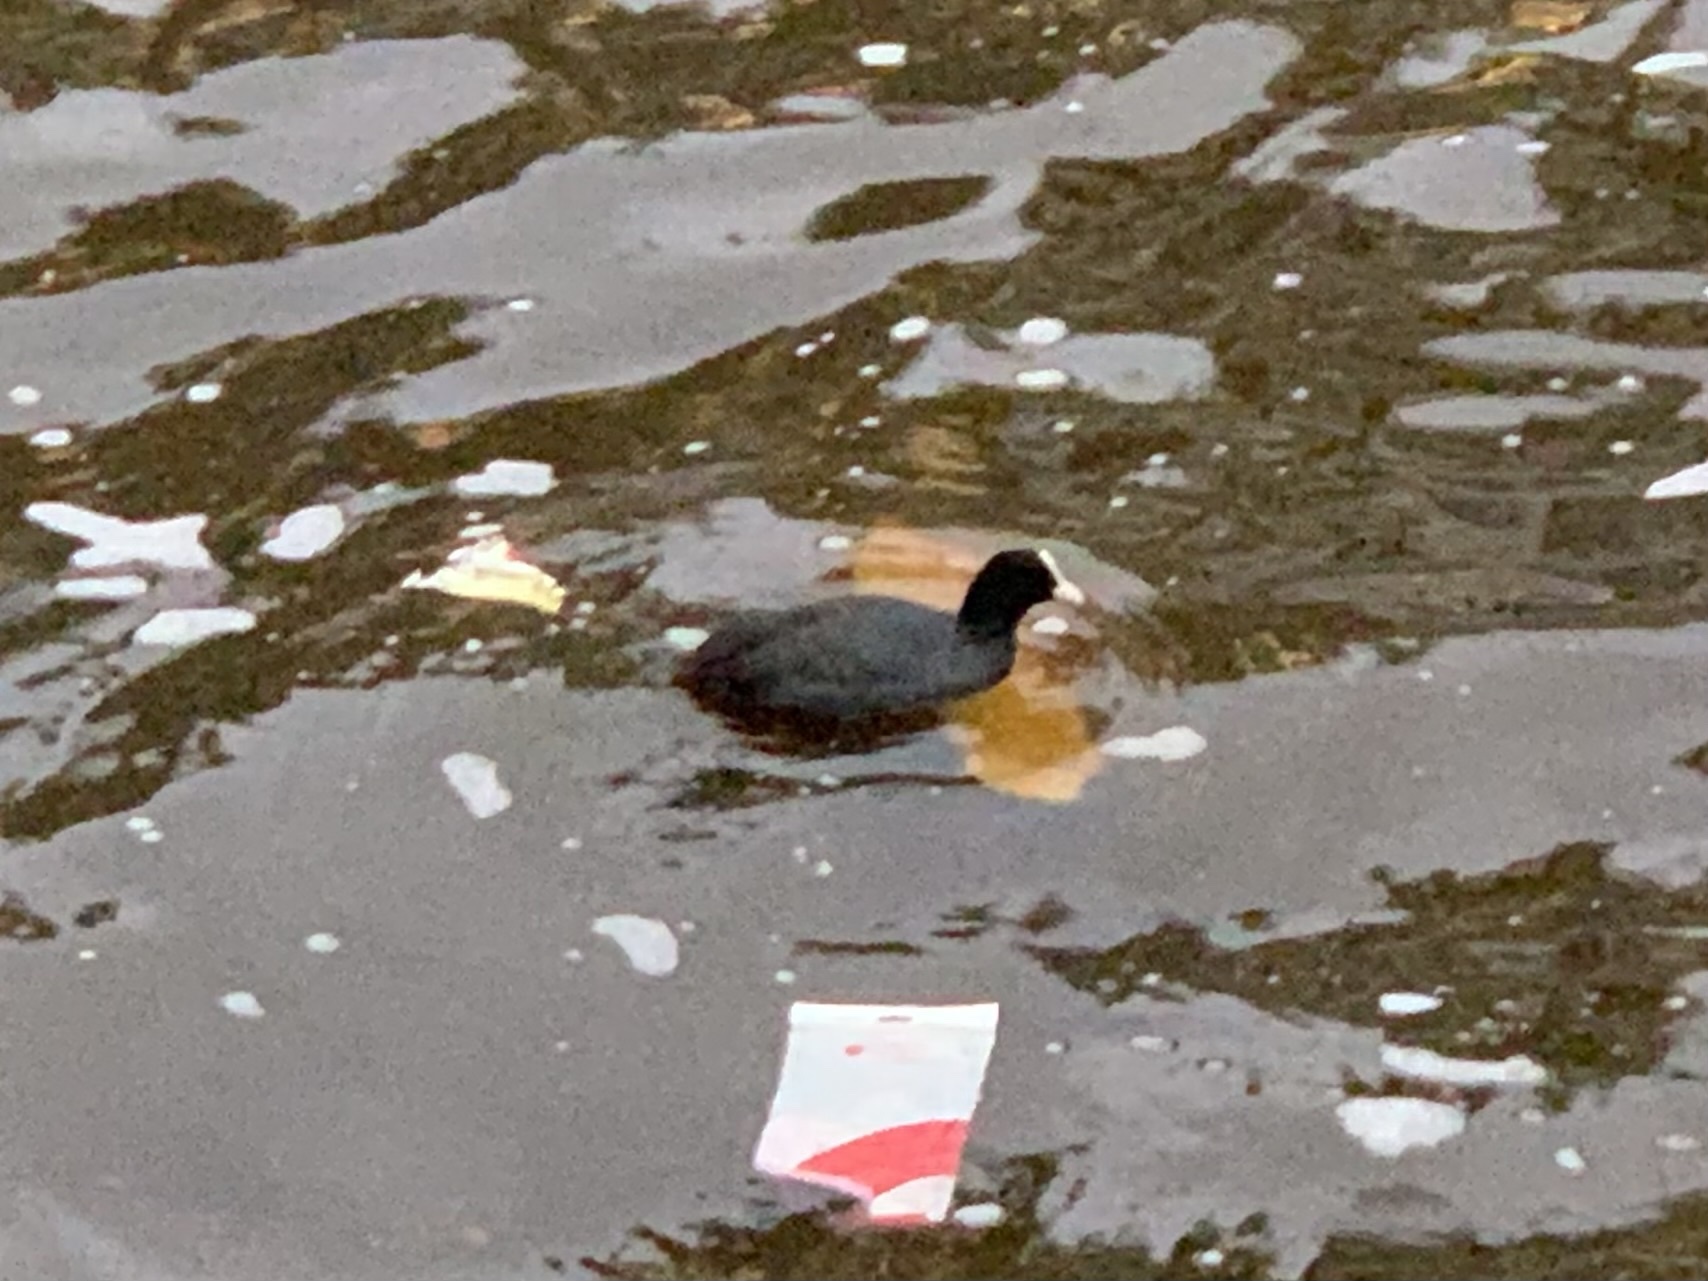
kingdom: Animalia
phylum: Chordata
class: Aves
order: Gruiformes
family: Rallidae
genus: Fulica
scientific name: Fulica atra
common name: Eurasian coot
